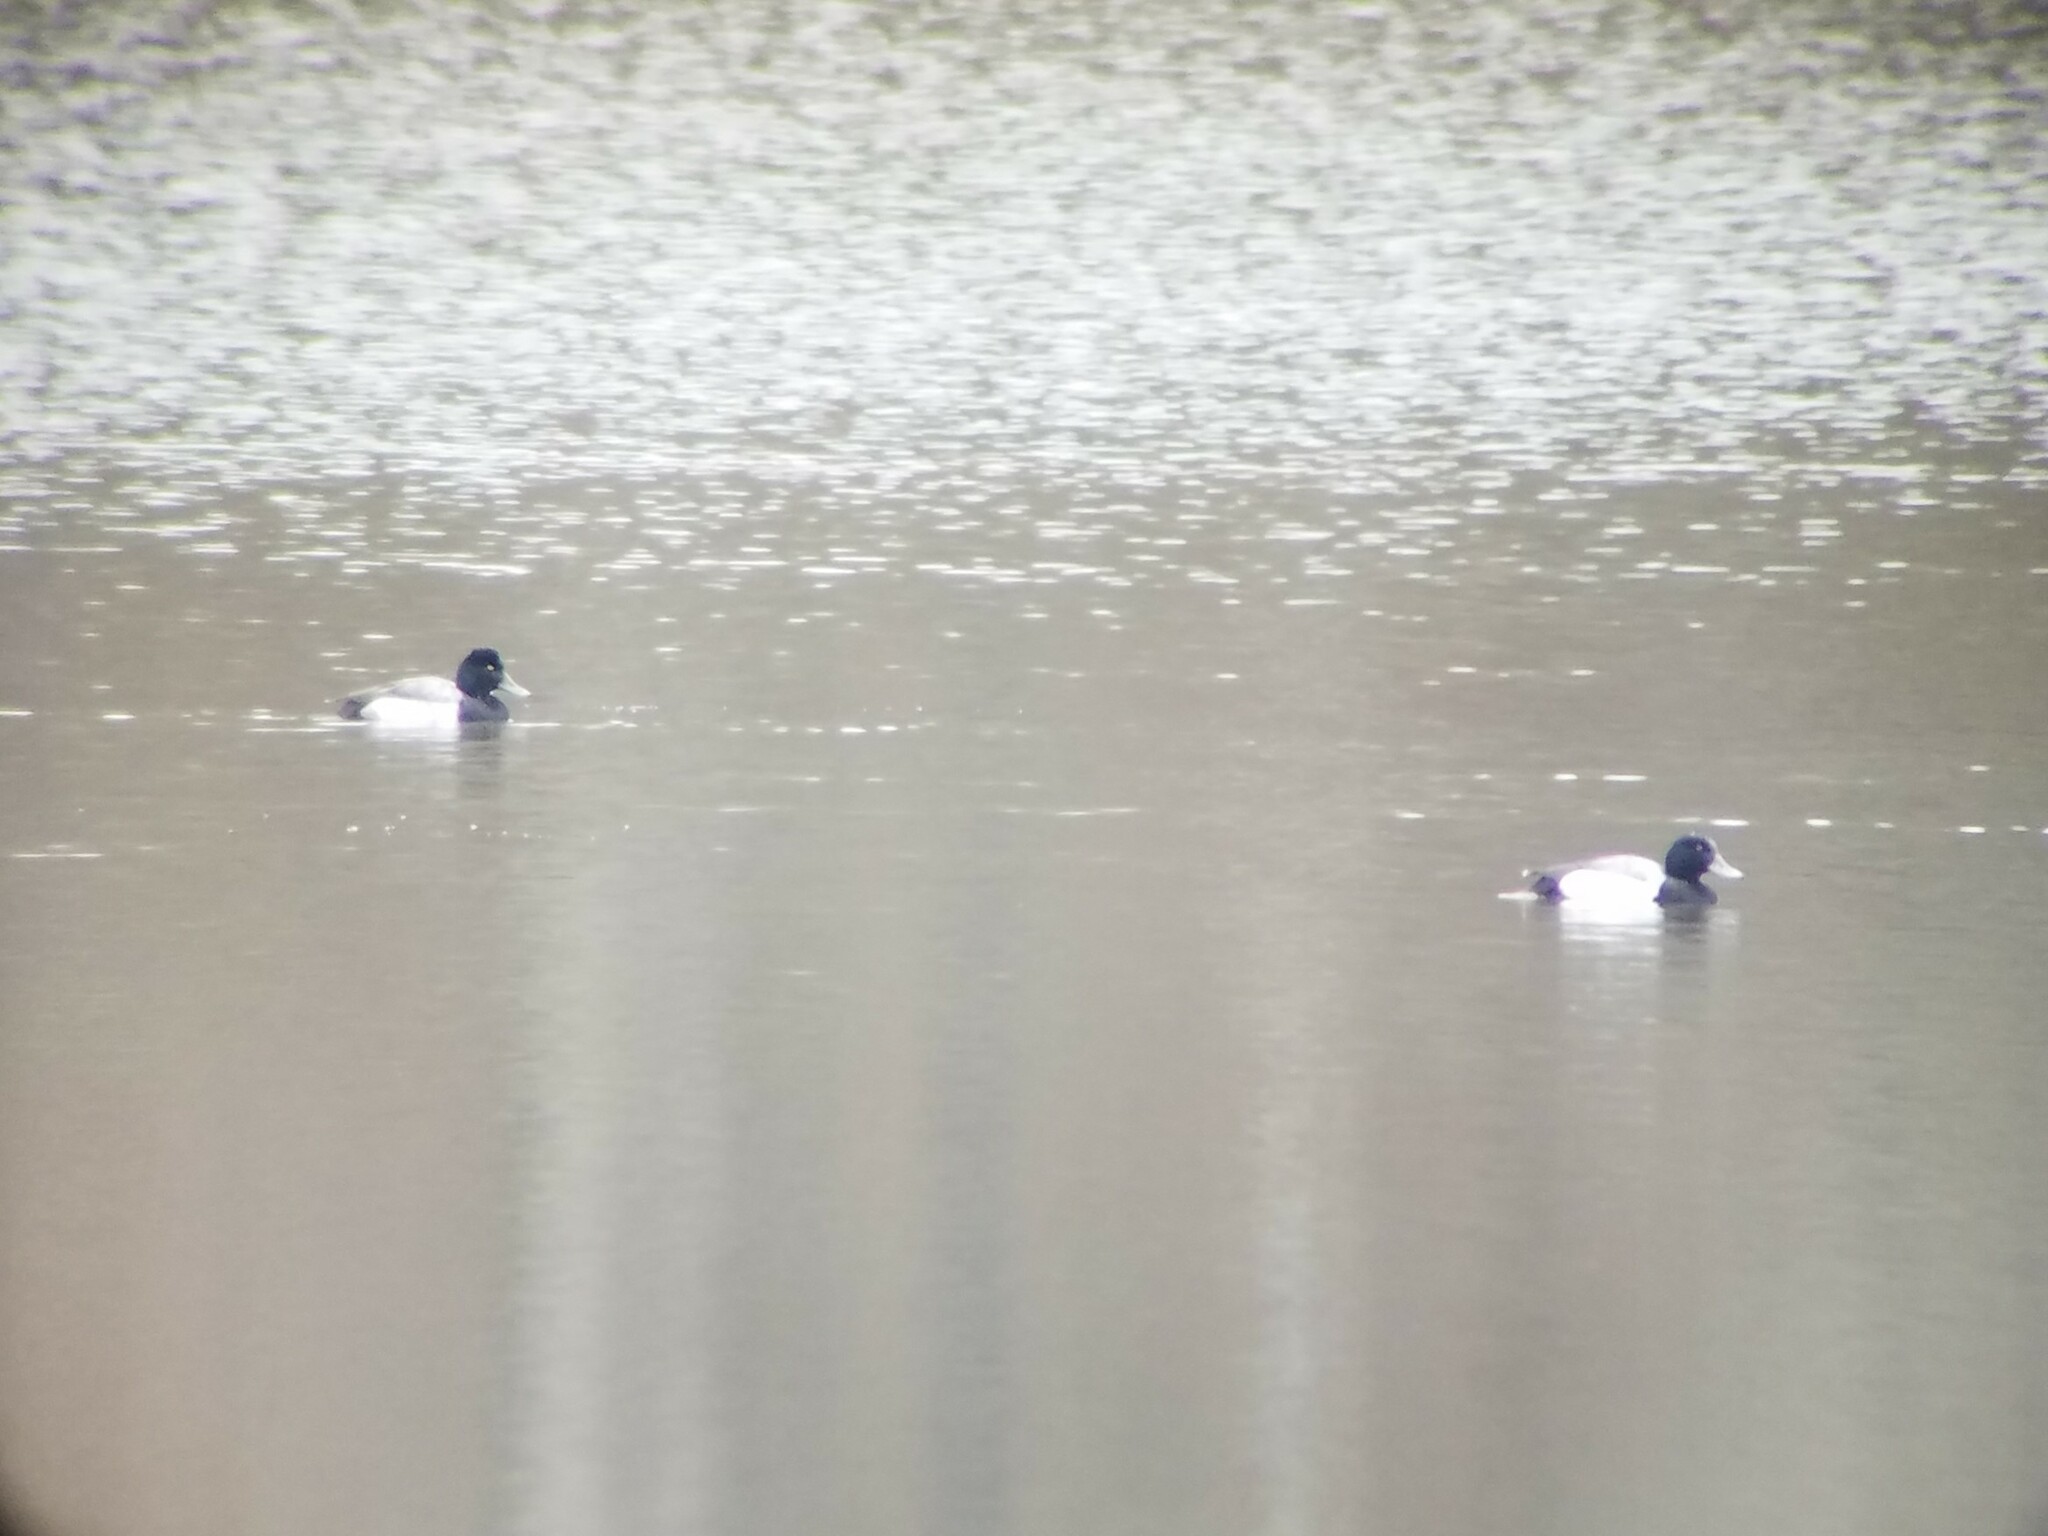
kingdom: Animalia
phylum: Chordata
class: Aves
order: Anseriformes
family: Anatidae
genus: Aythya
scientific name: Aythya affinis
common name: Lesser scaup
